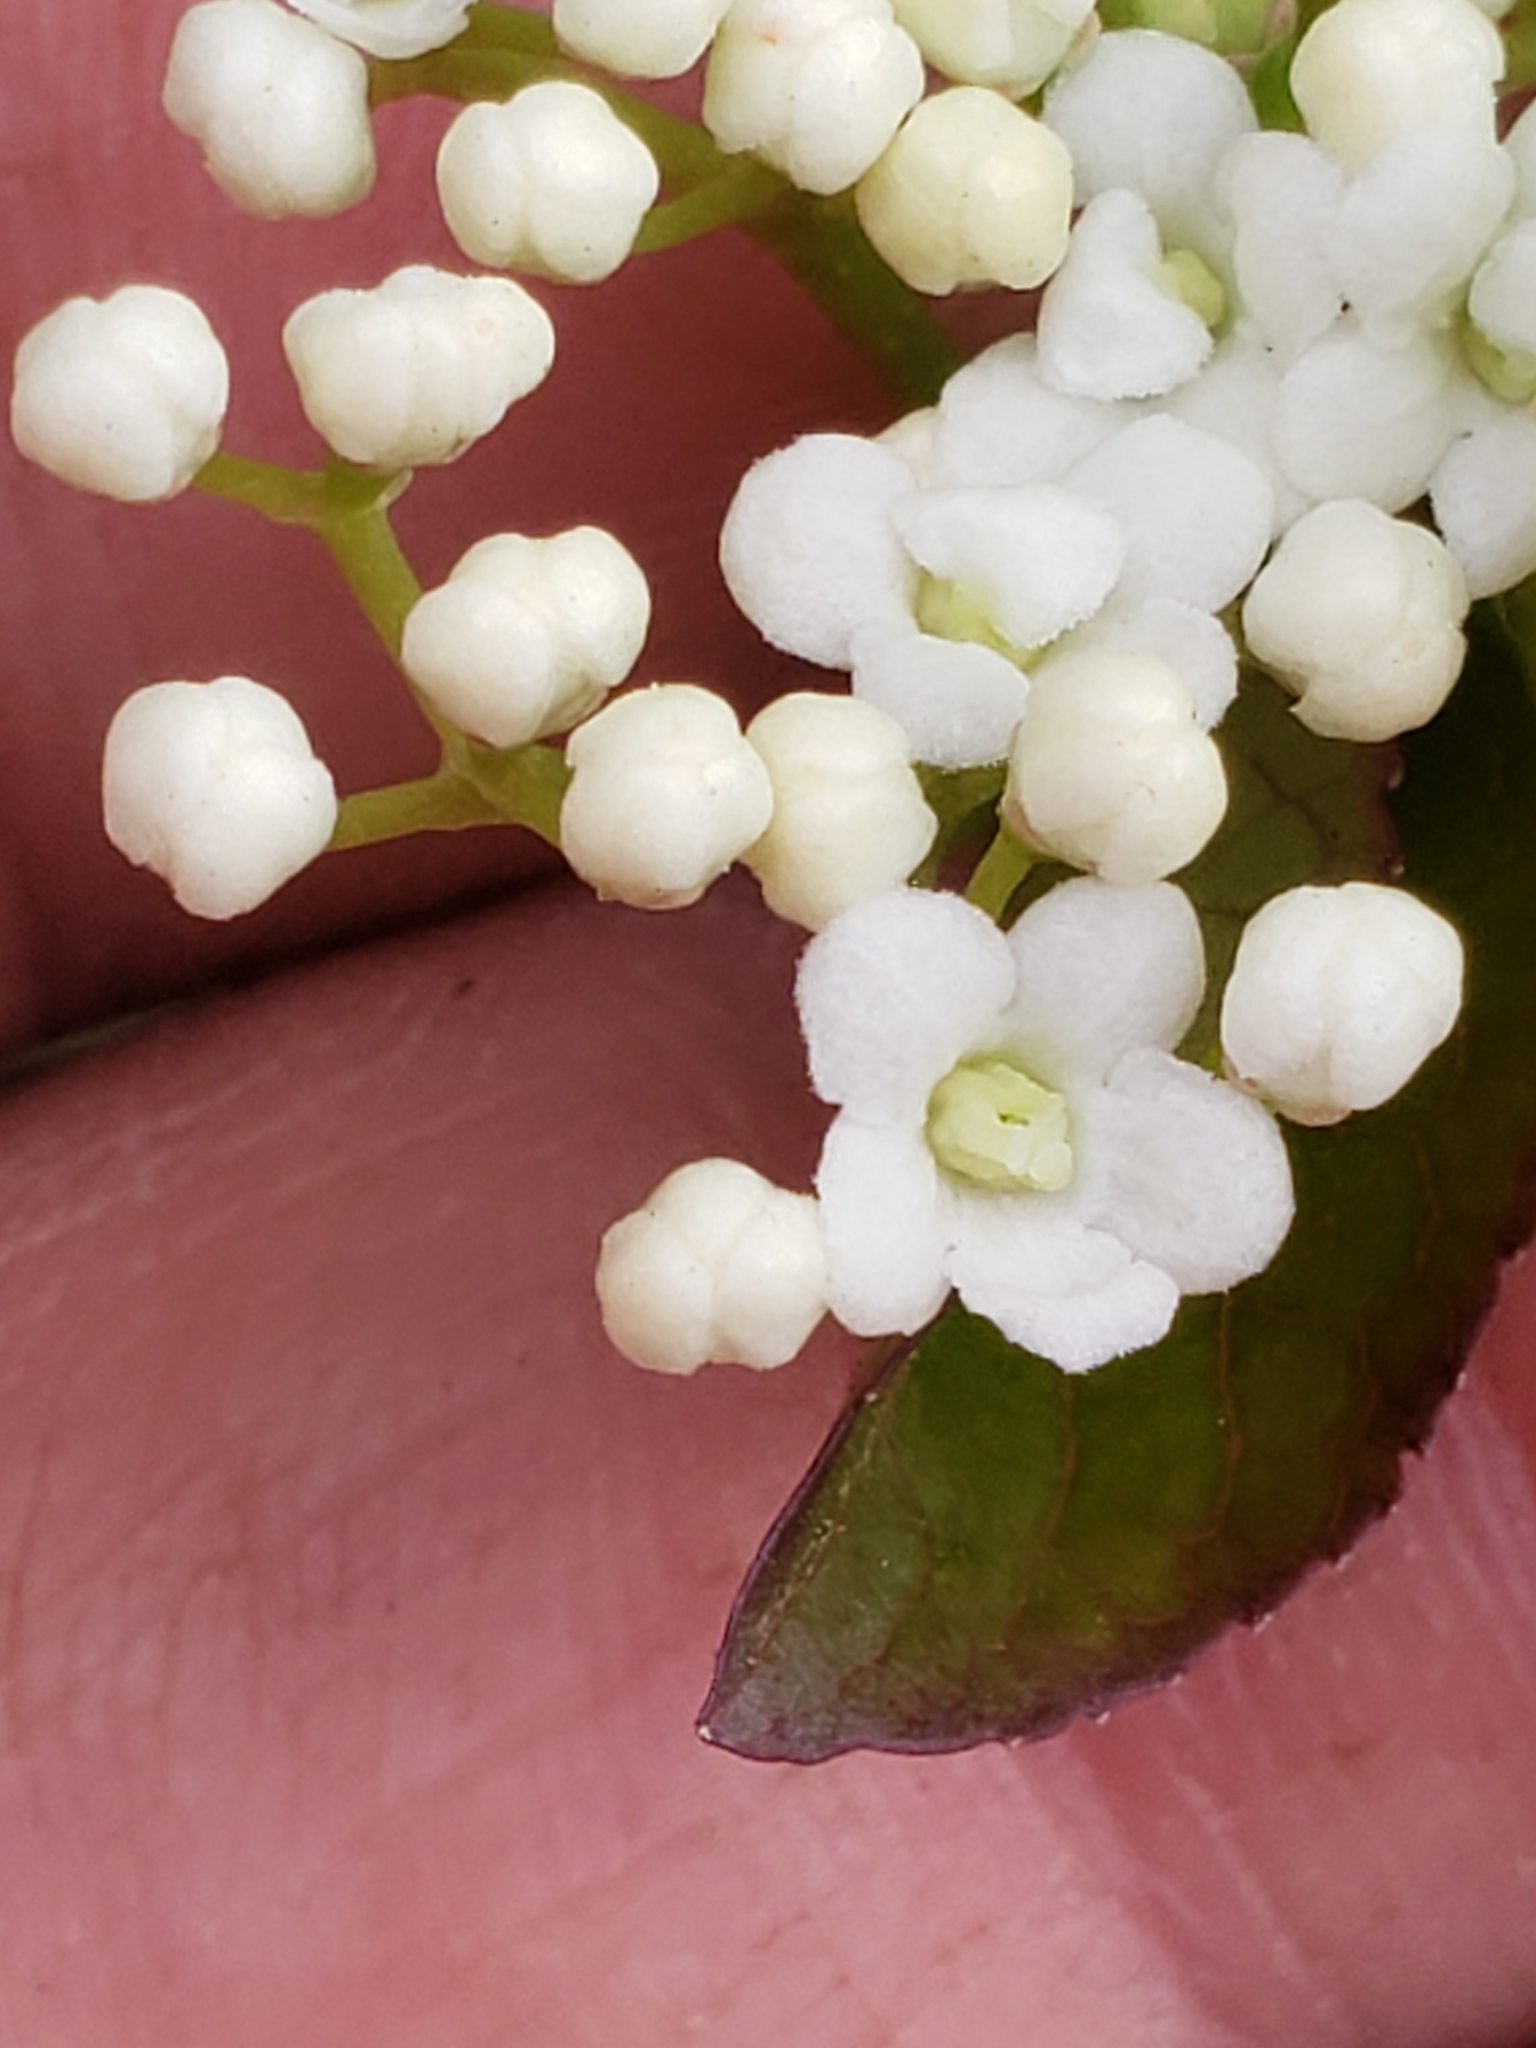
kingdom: Plantae
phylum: Tracheophyta
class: Magnoliopsida
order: Dipsacales
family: Viburnaceae
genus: Viburnum
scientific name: Viburnum prunifolium
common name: Black haw
